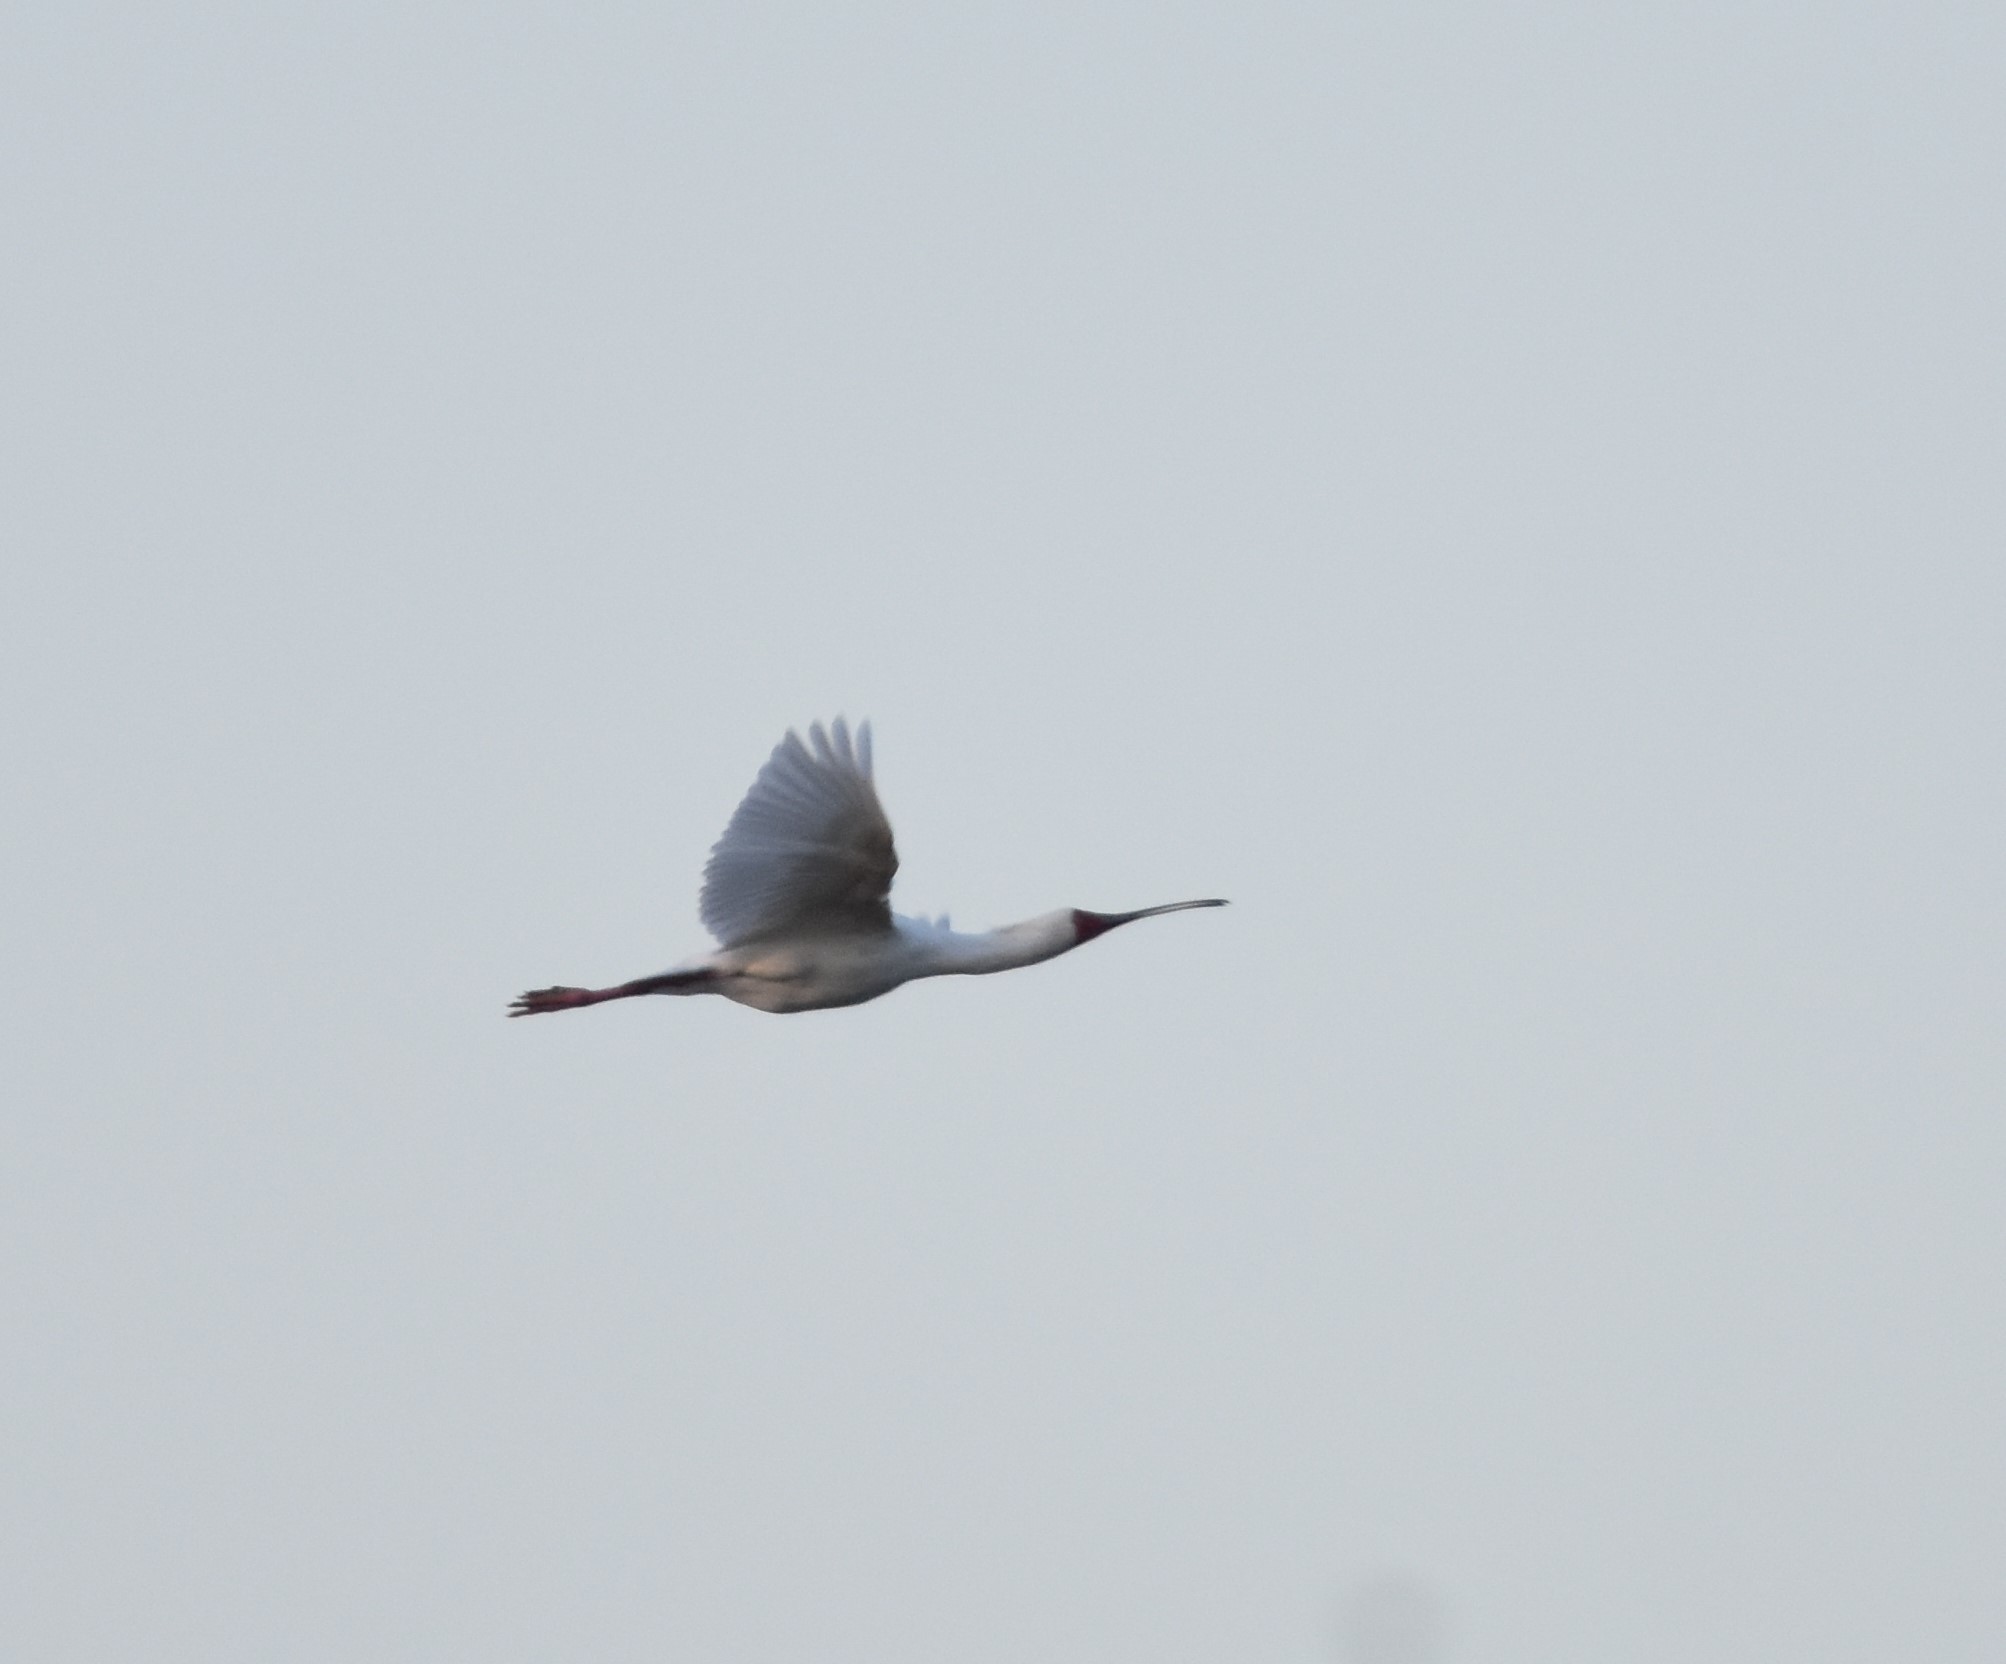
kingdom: Animalia
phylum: Chordata
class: Aves
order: Pelecaniformes
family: Threskiornithidae
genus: Platalea
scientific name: Platalea alba
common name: African spoonbill
